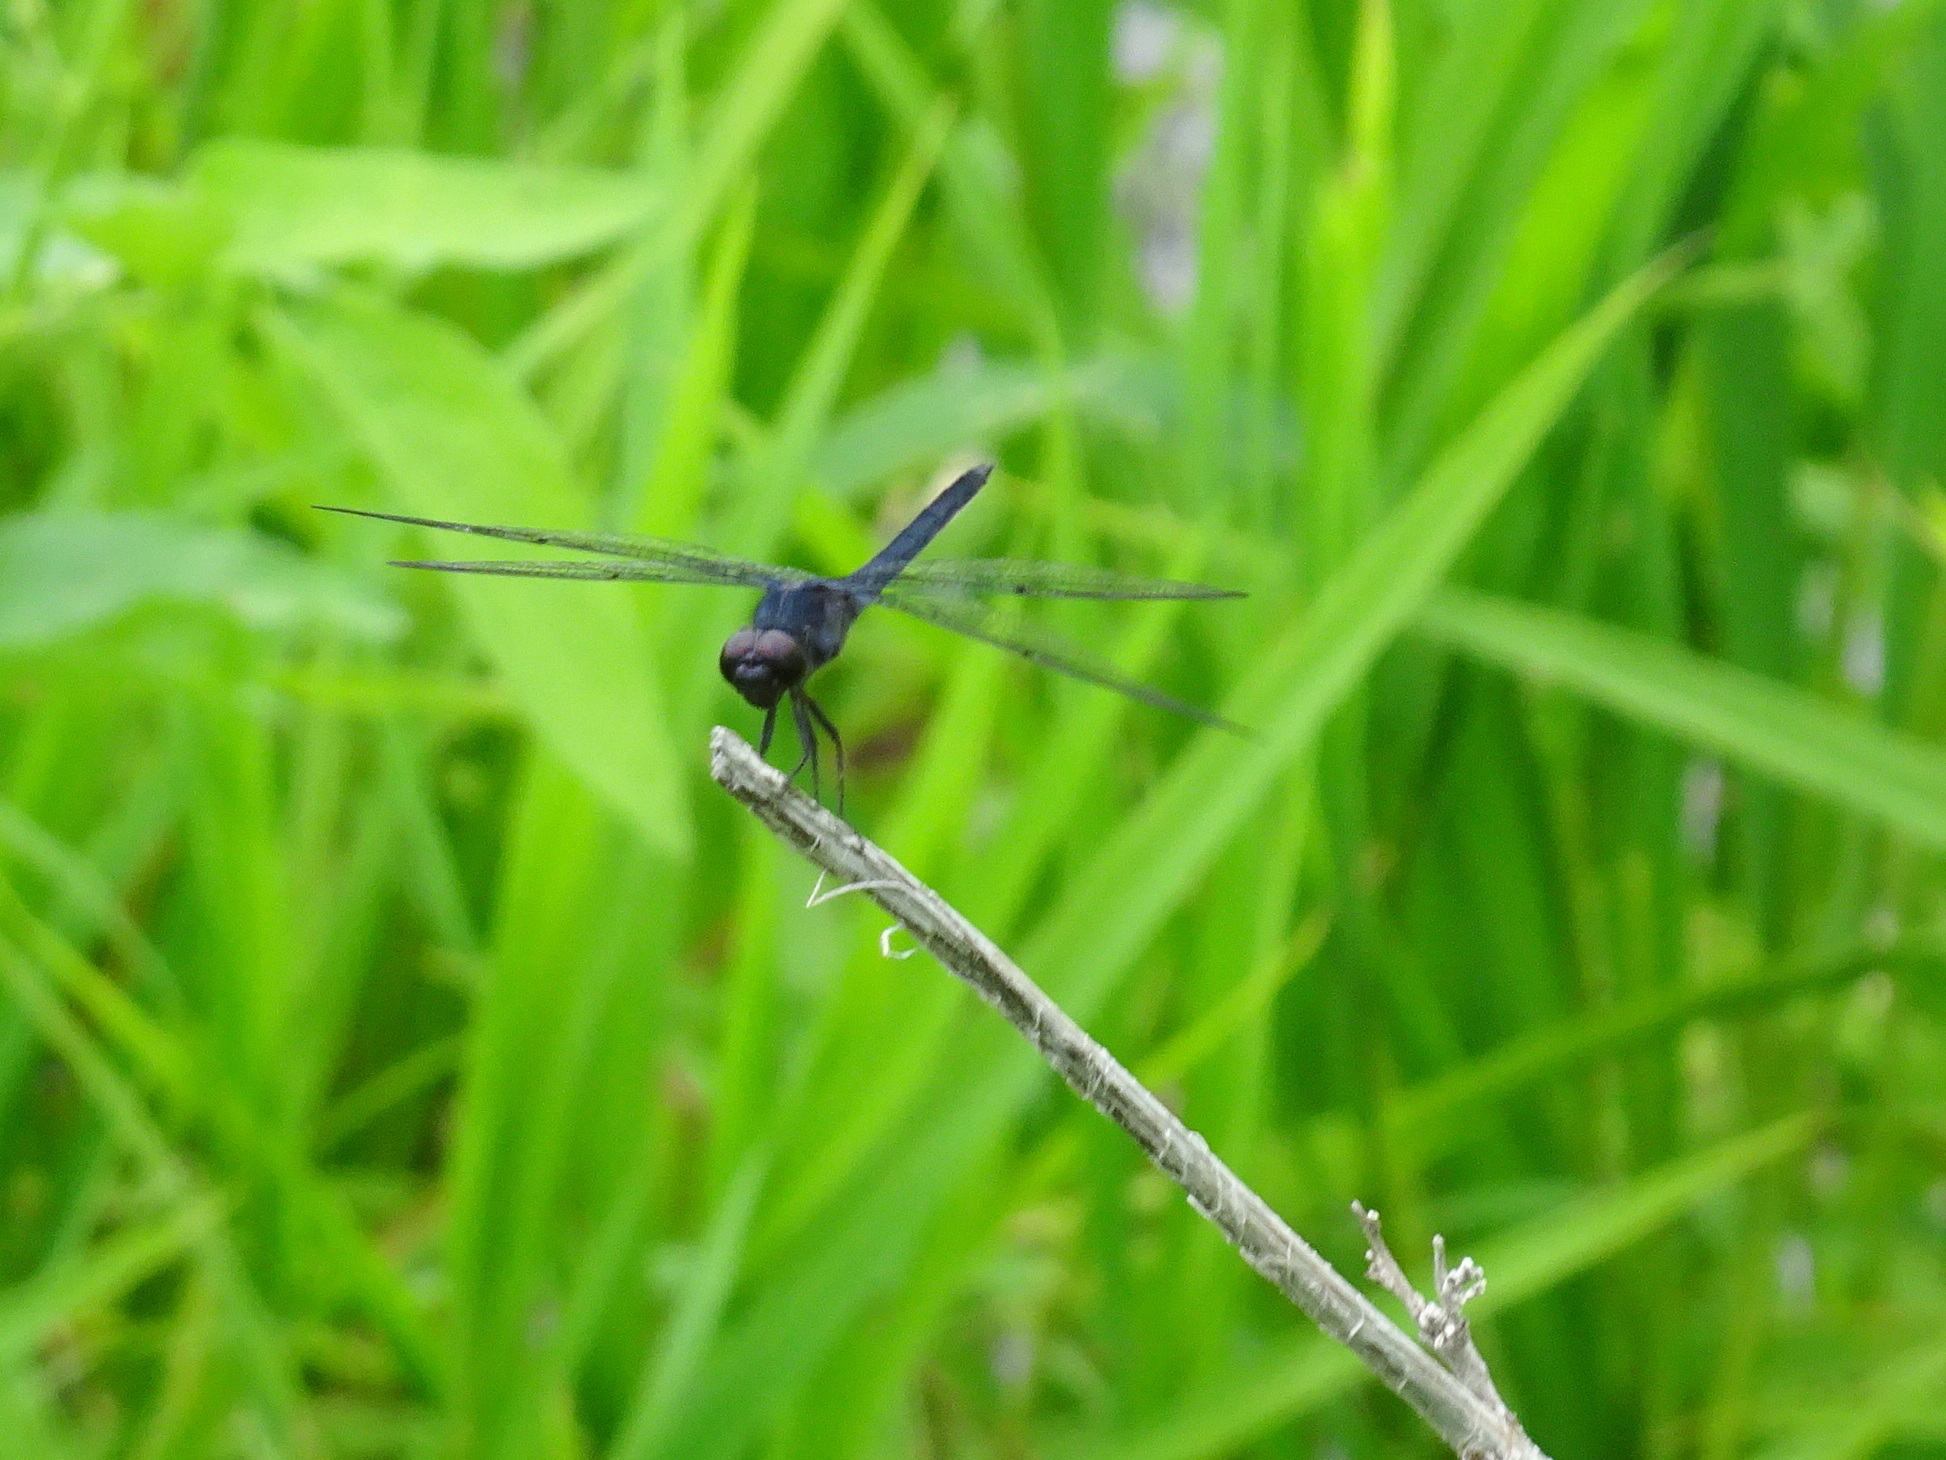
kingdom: Animalia
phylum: Arthropoda
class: Insecta
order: Odonata
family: Libellulidae
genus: Libellula
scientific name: Libellula incesta
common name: Slaty skimmer
